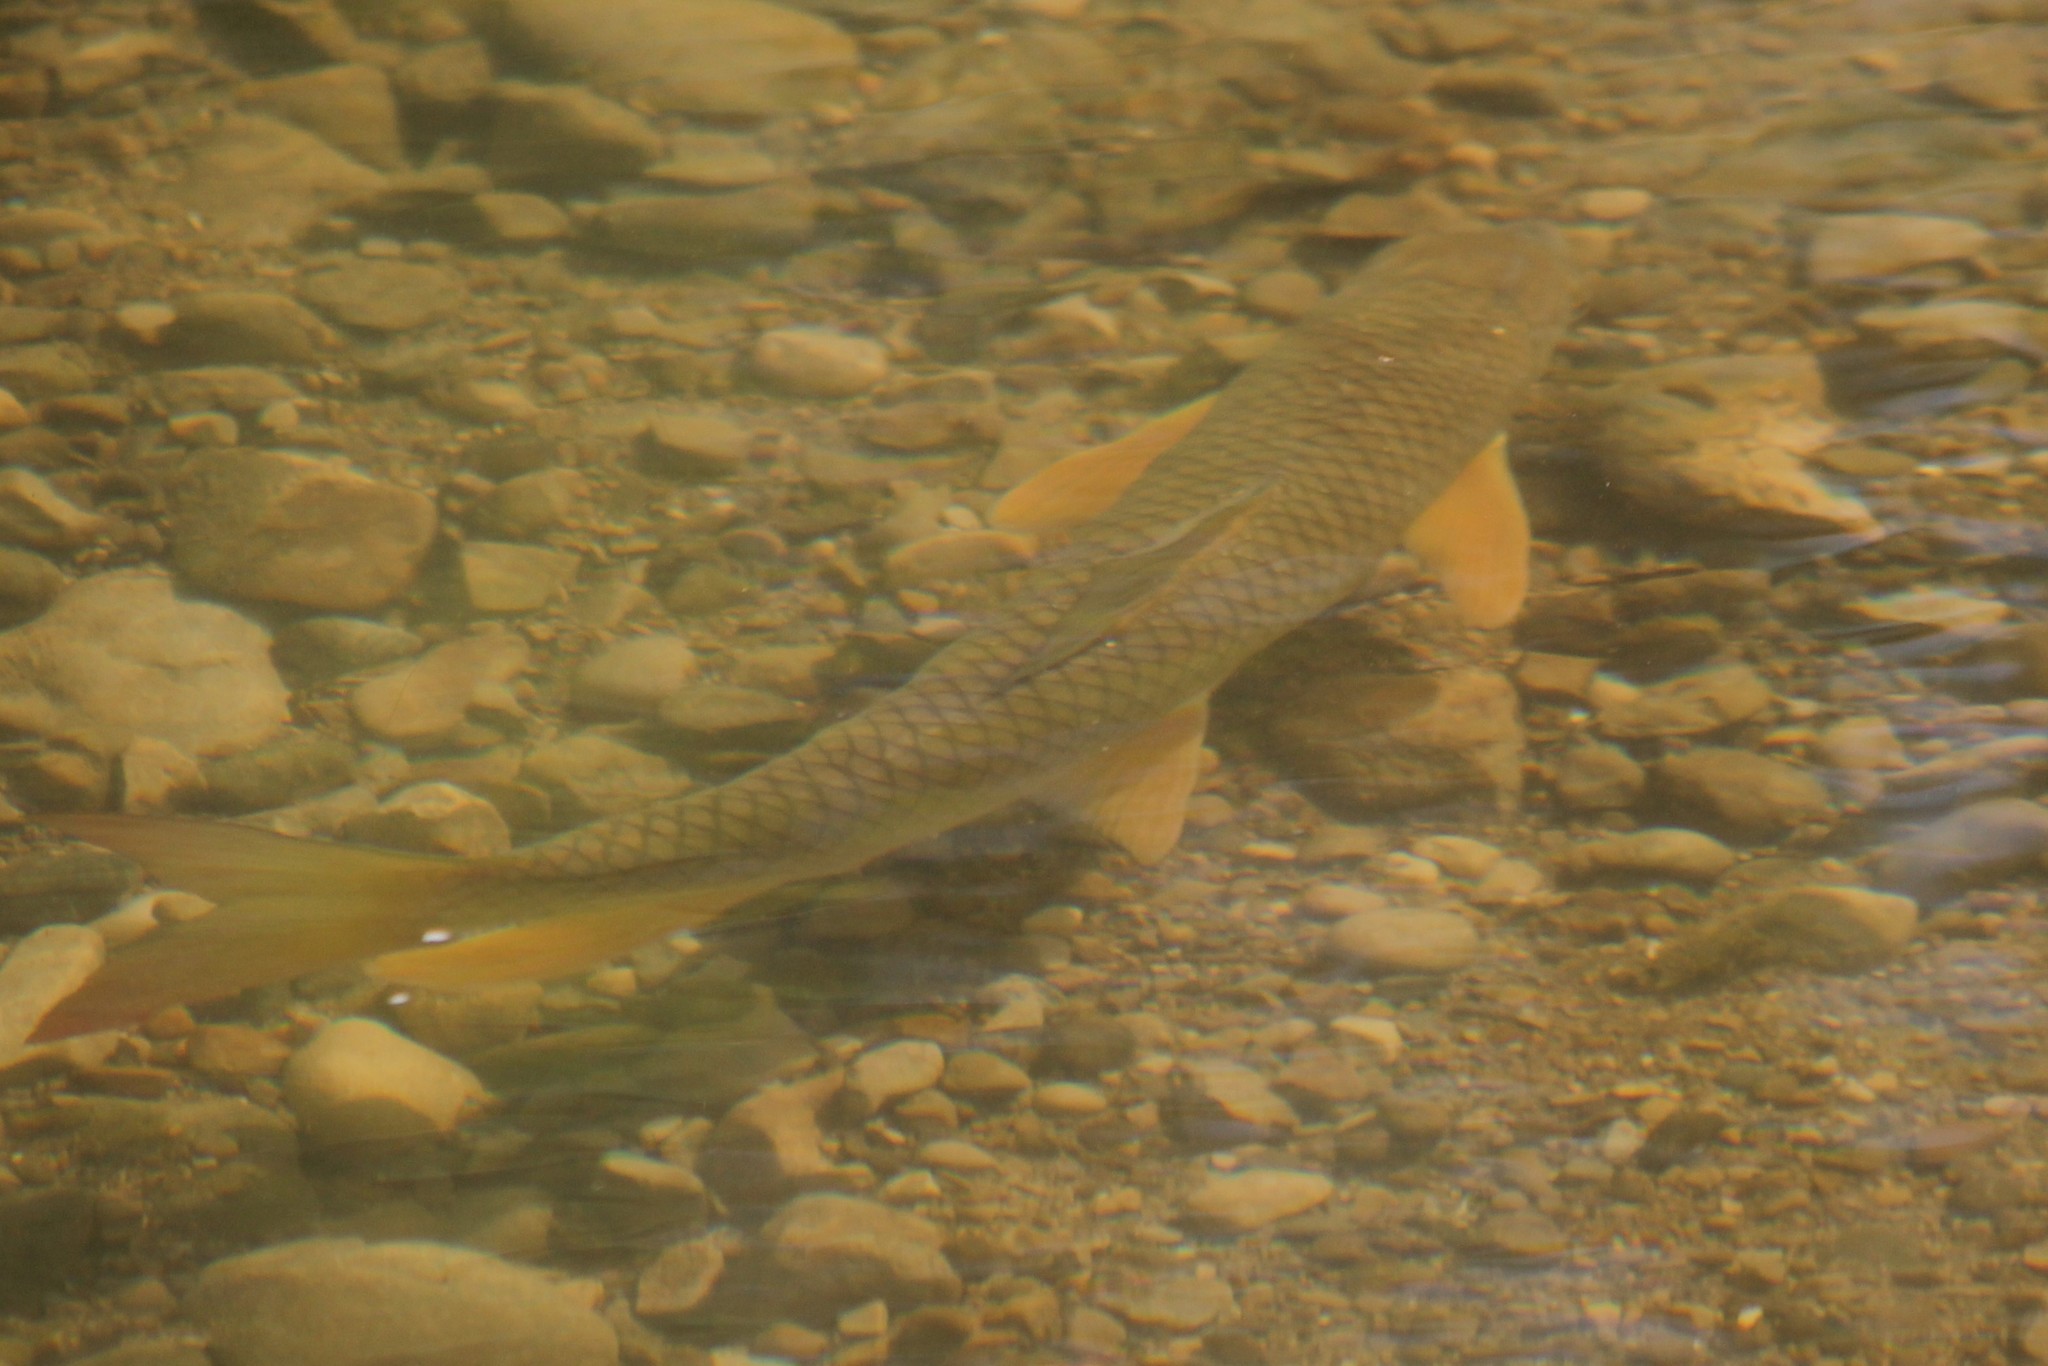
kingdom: Animalia
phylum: Chordata
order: Cypriniformes
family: Catostomidae
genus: Moxostoma
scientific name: Moxostoma macrolepidotum
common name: Shorthead redhorse
